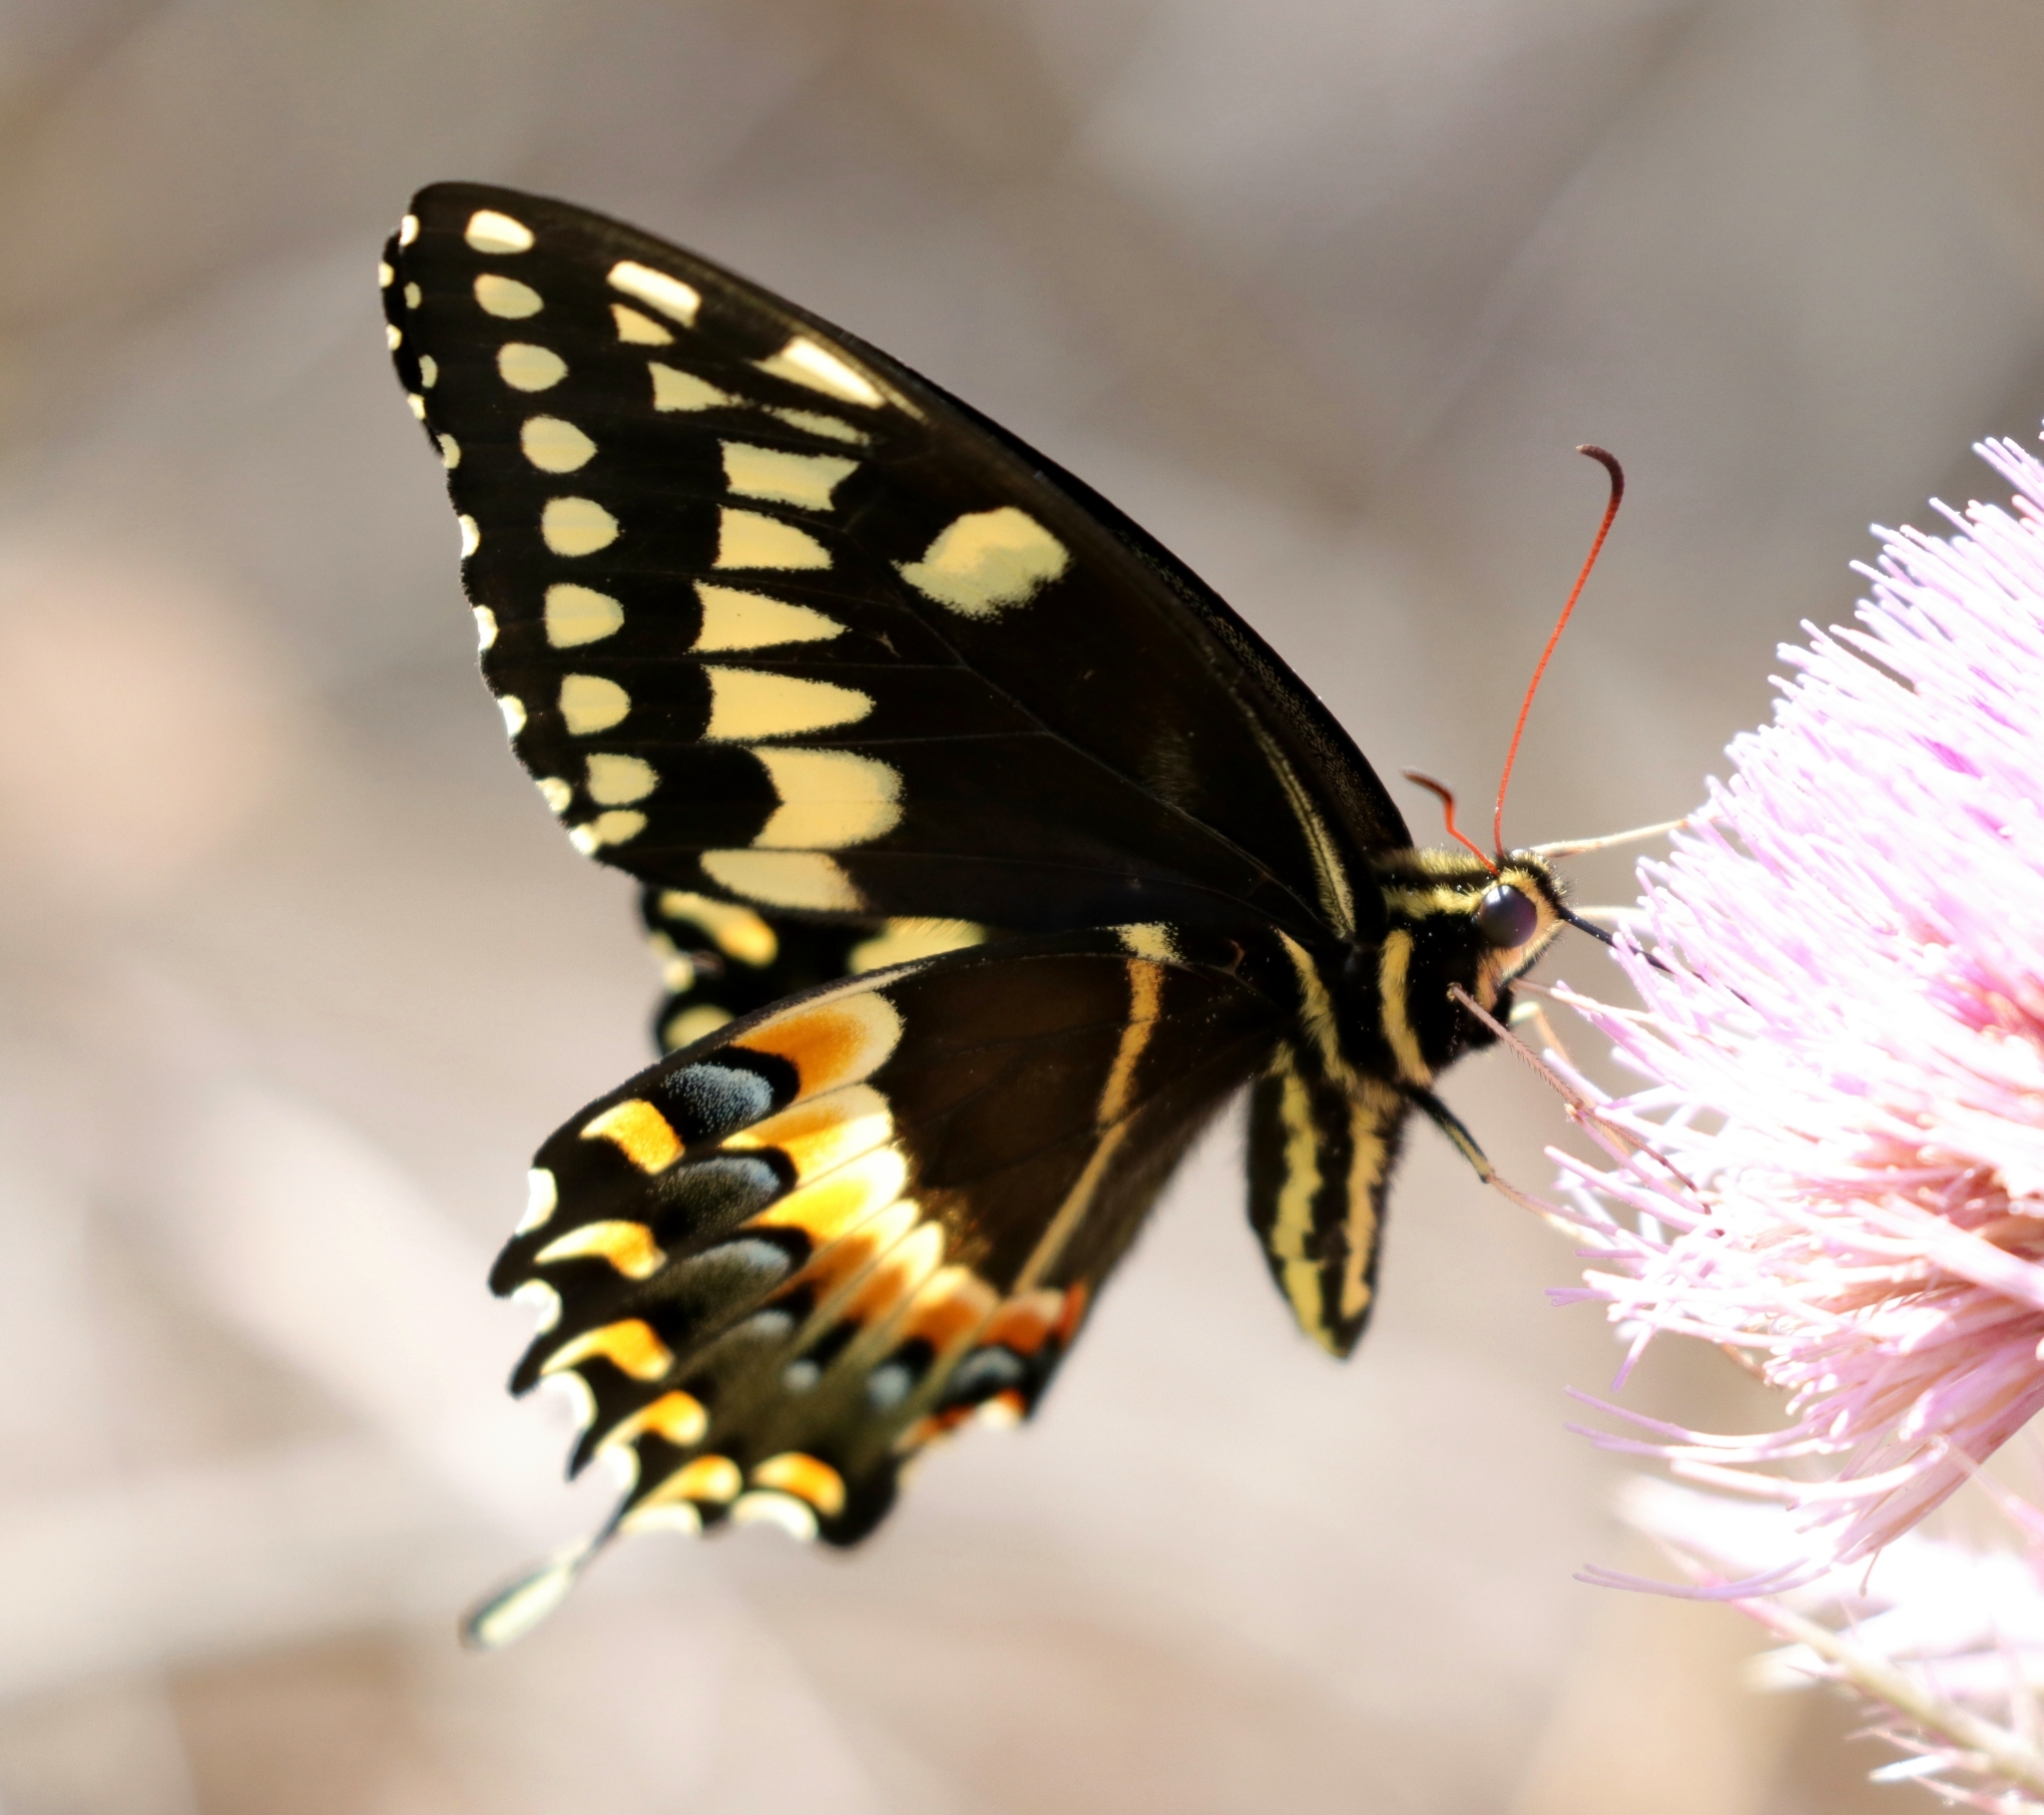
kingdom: Animalia
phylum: Arthropoda
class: Insecta
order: Lepidoptera
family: Papilionidae
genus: Papilio
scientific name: Papilio palamedes
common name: Palamedes swallowtail
